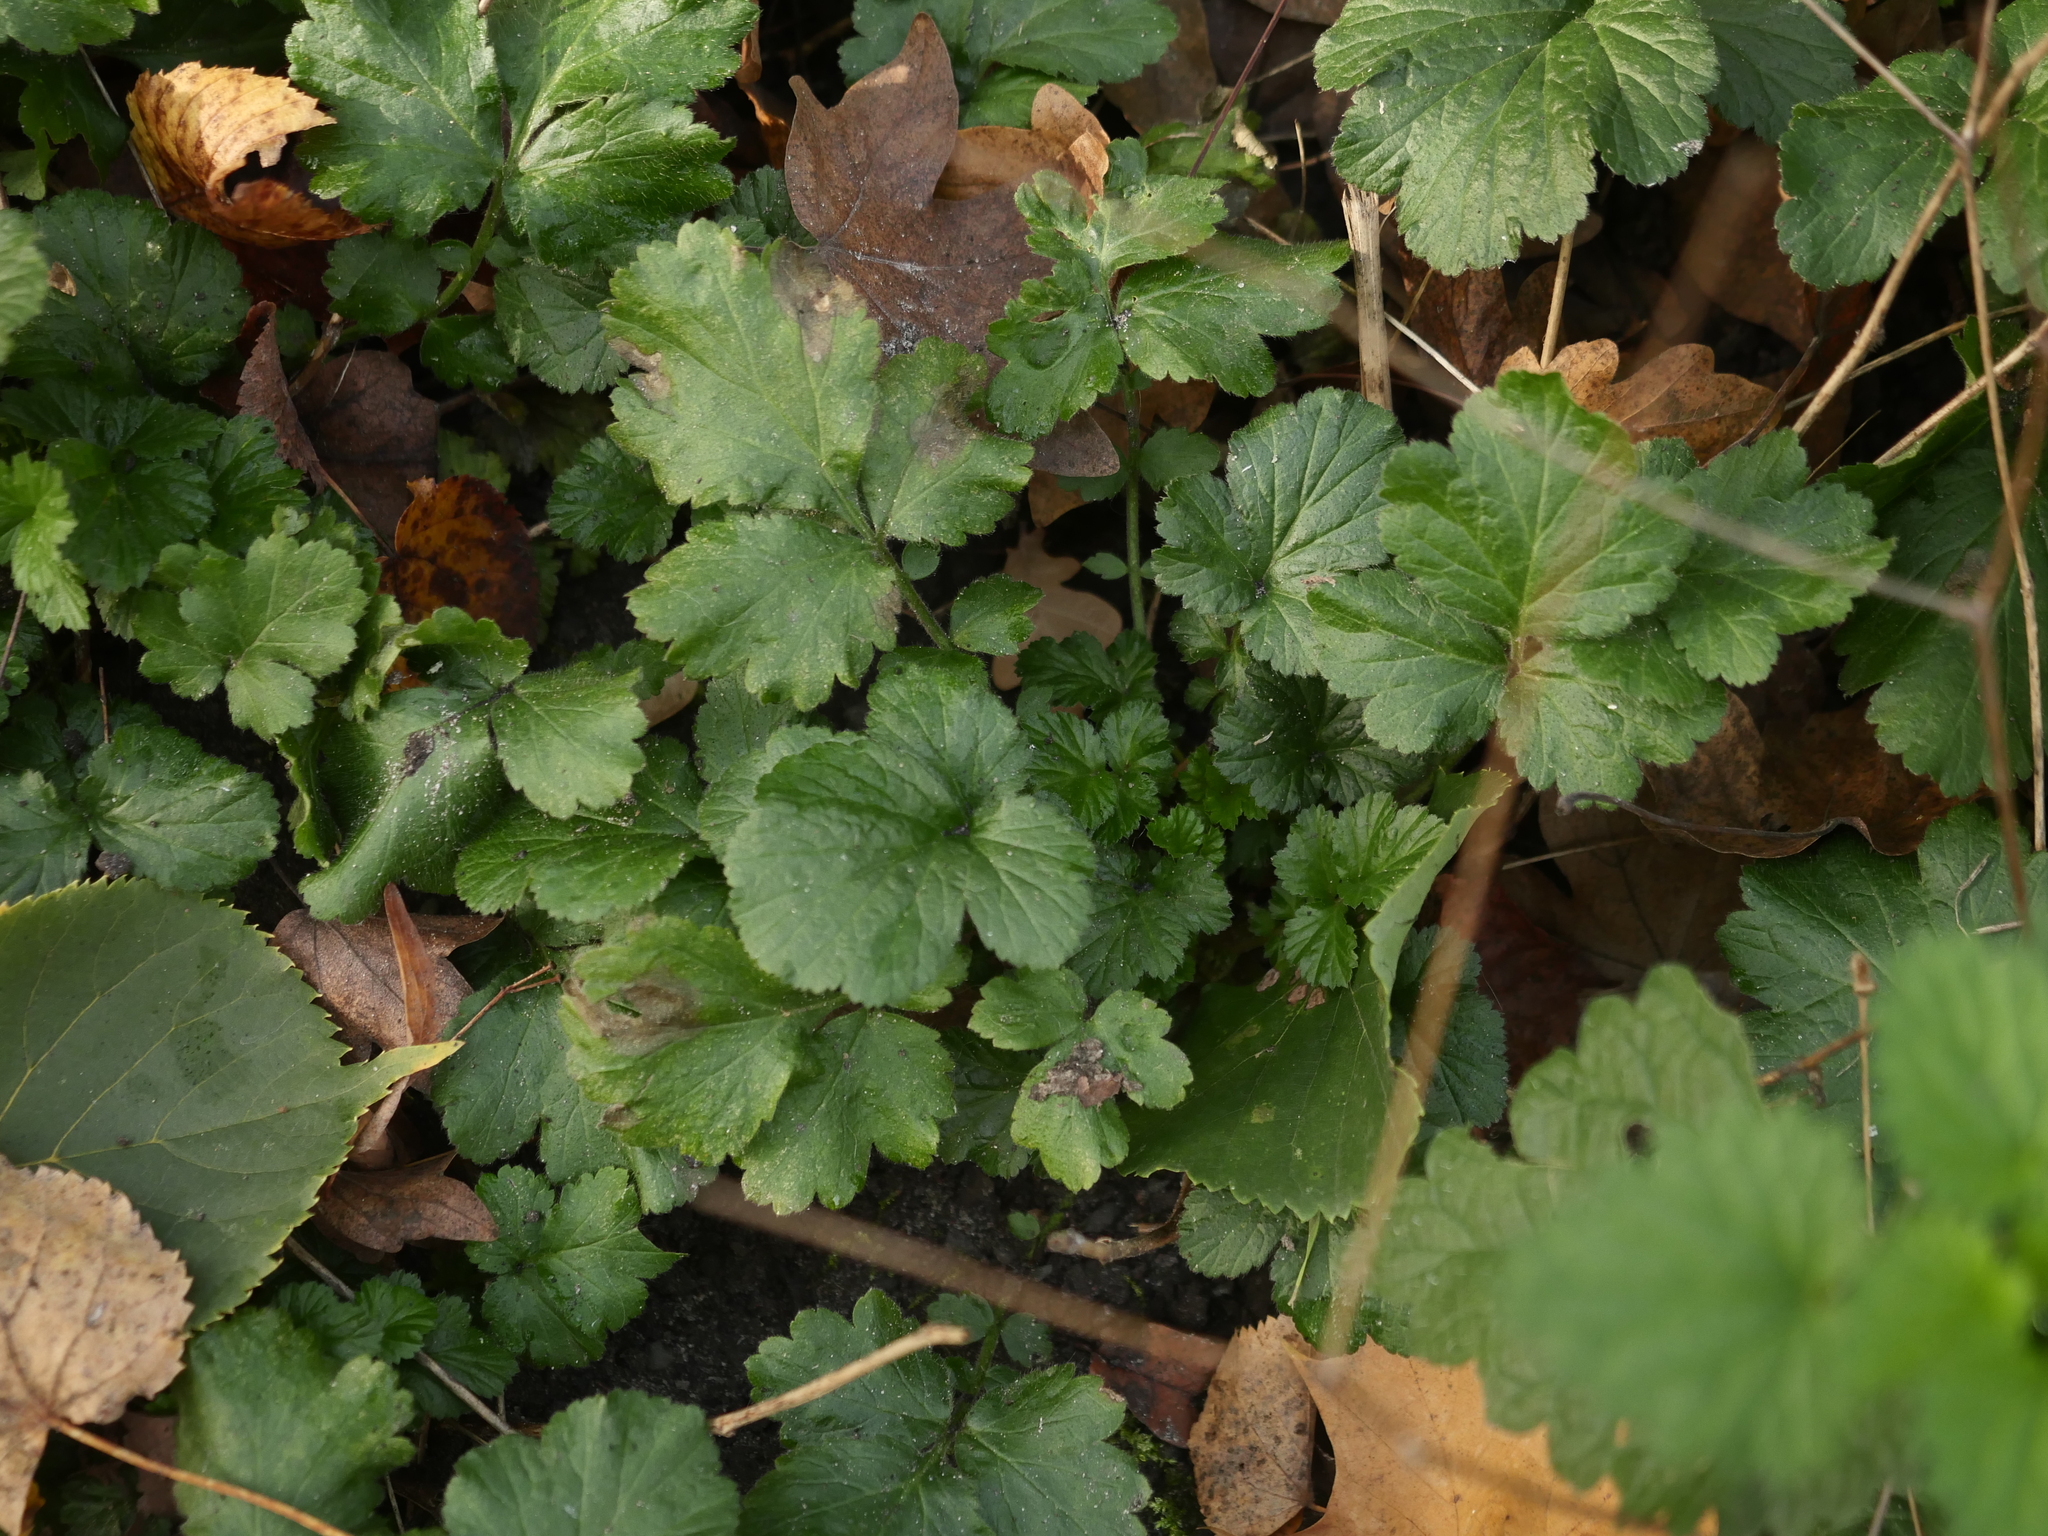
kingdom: Plantae
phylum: Tracheophyta
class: Magnoliopsida
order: Rosales
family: Rosaceae
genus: Geum
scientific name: Geum urbanum
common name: Wood avens
